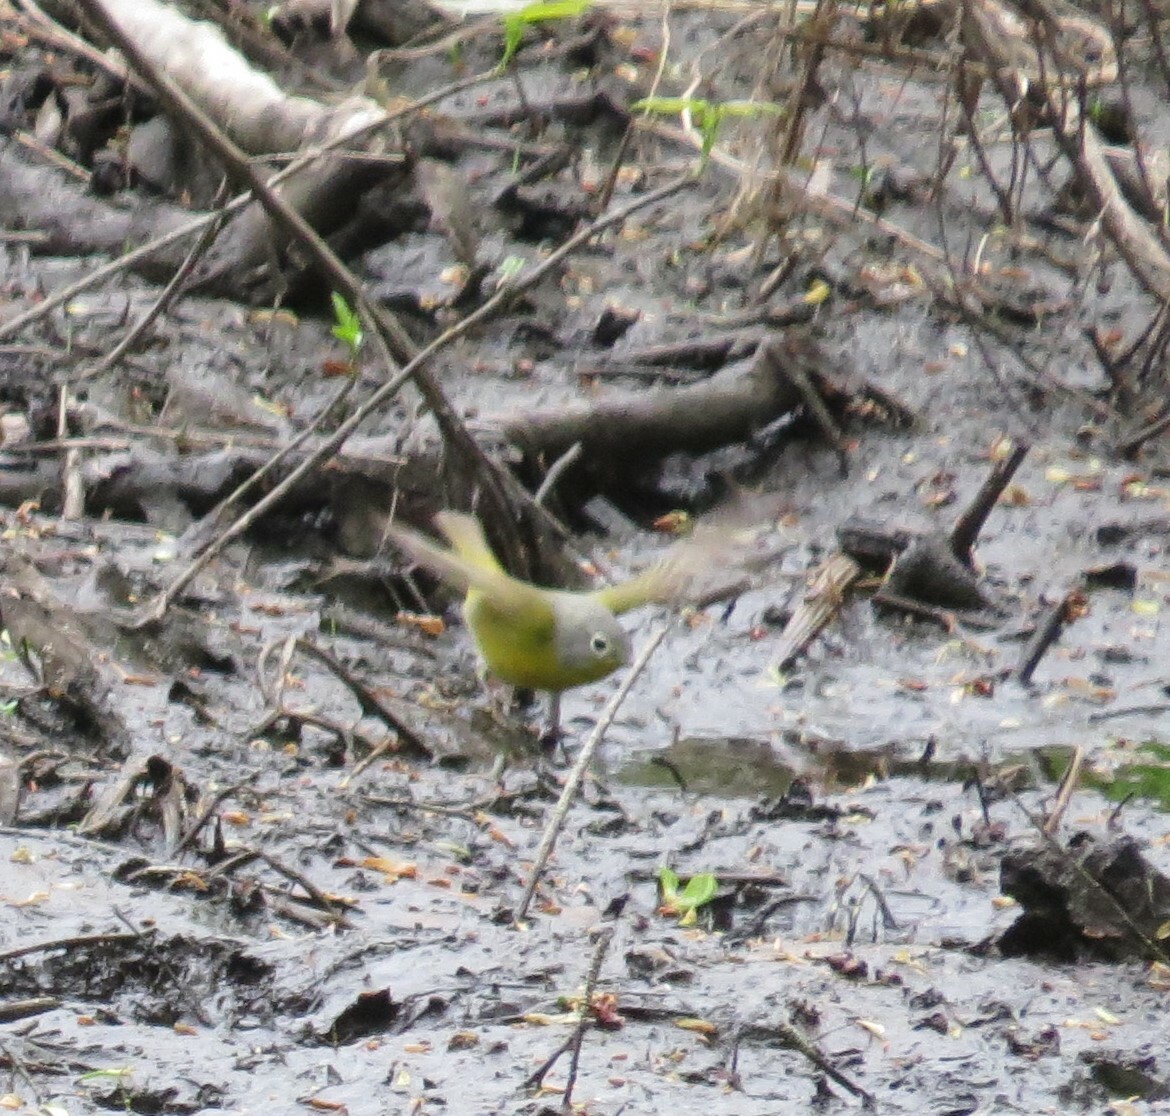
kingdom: Animalia
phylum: Chordata
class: Aves
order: Passeriformes
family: Parulidae
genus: Leiothlypis
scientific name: Leiothlypis ruficapilla
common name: Nashville warbler
